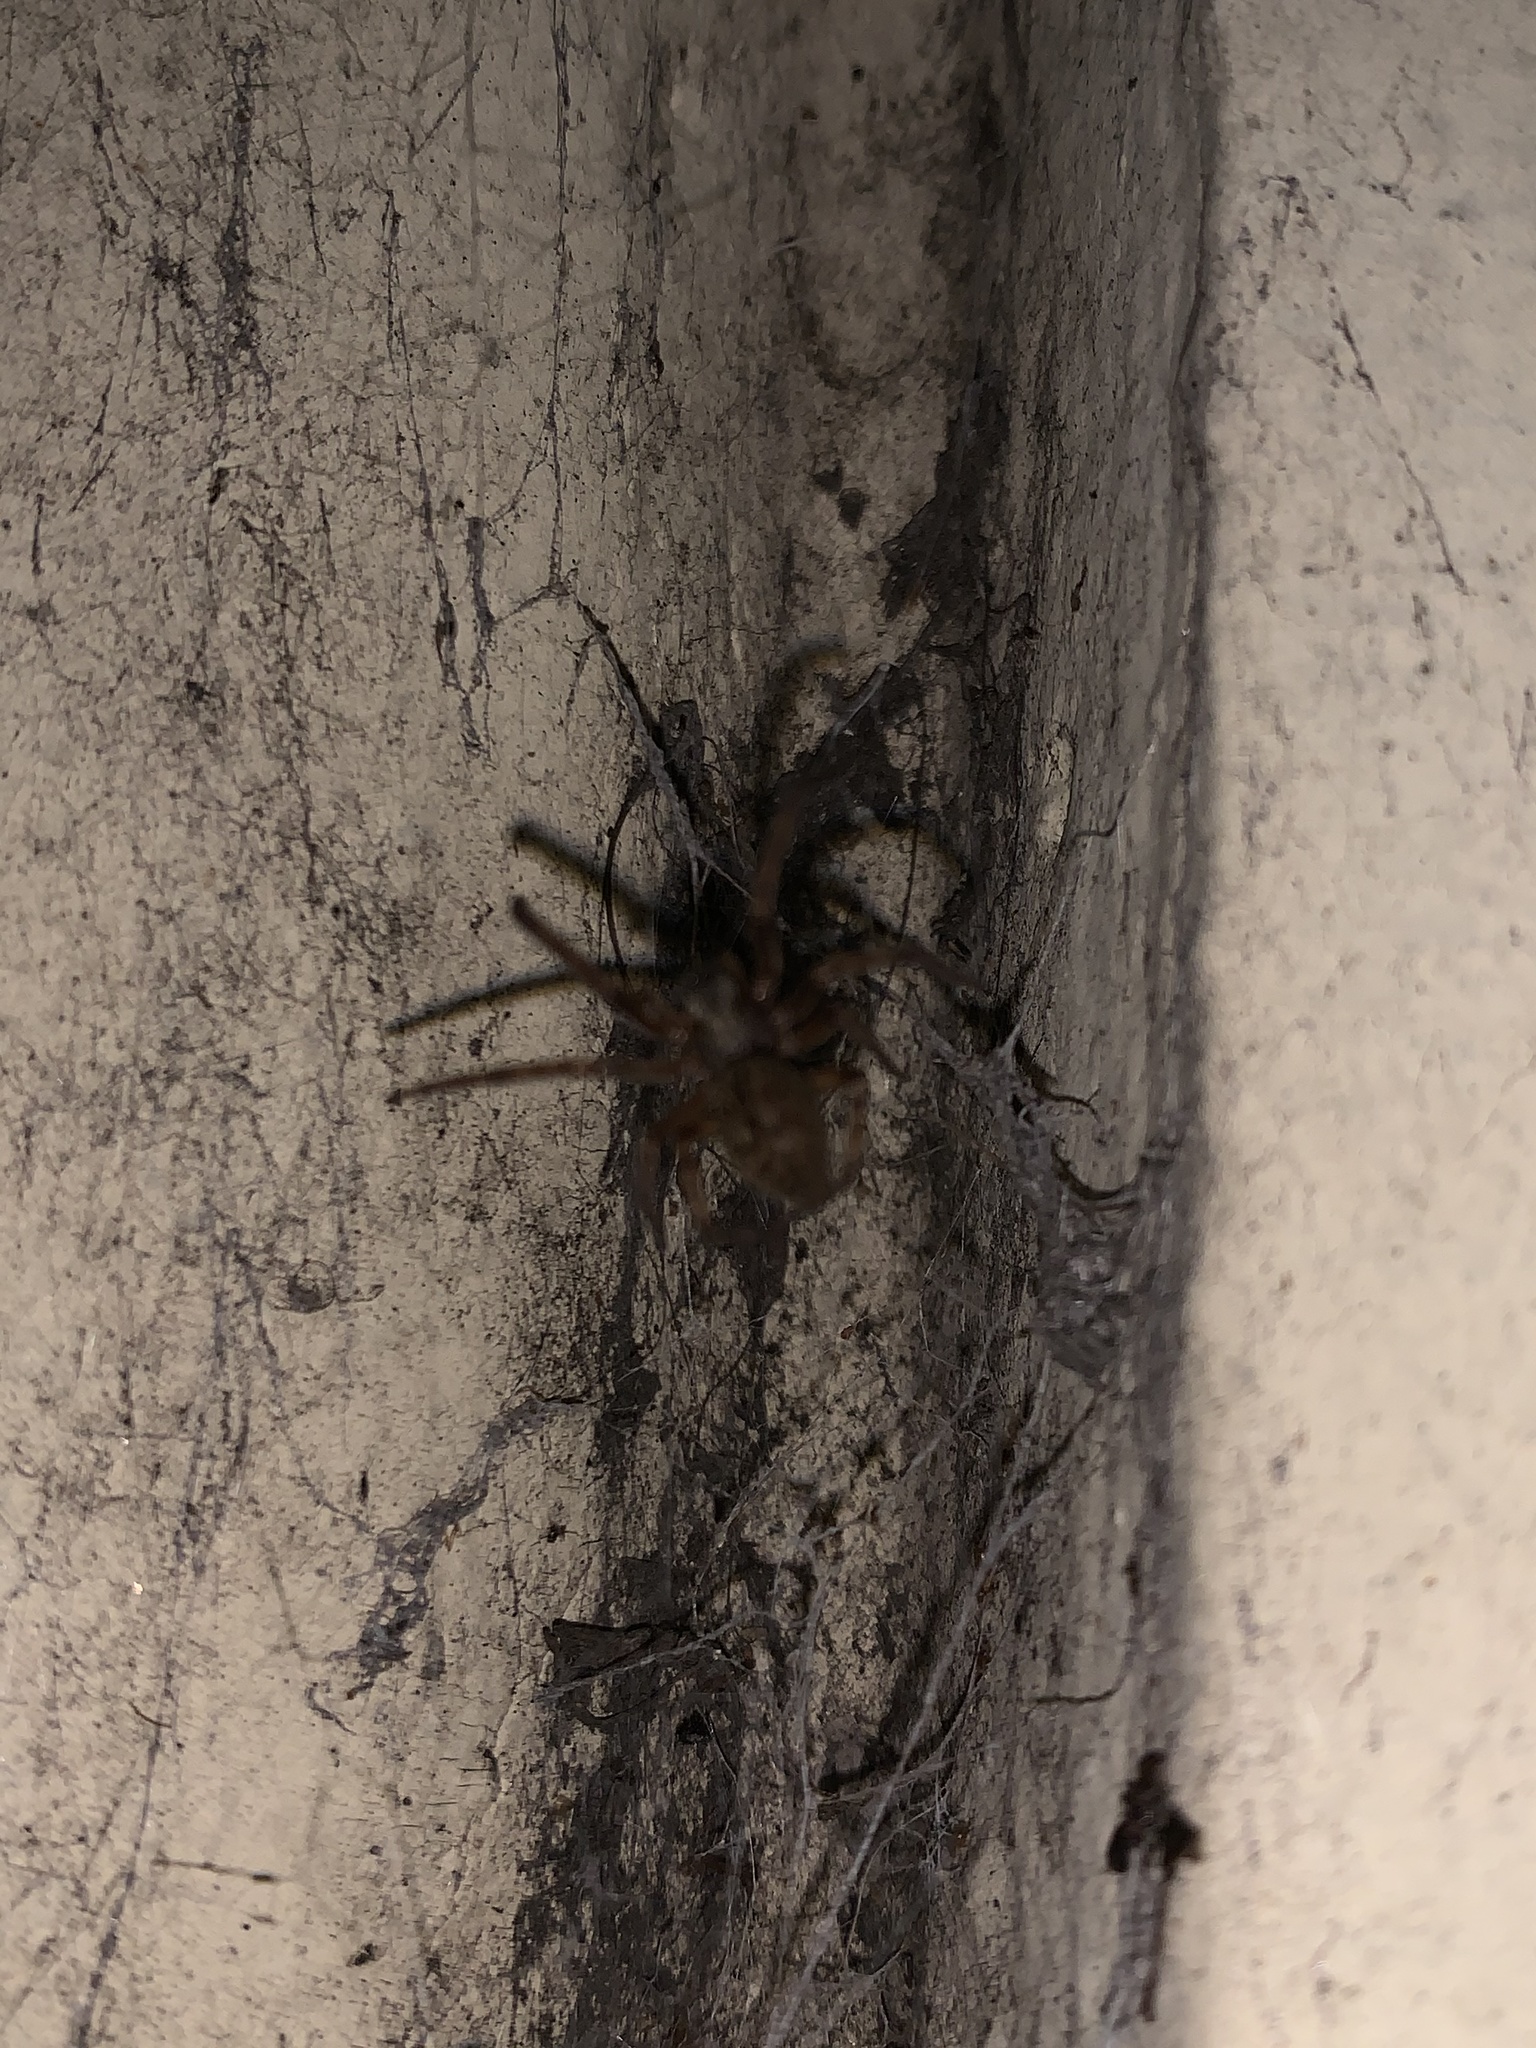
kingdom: Animalia
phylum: Arthropoda
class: Arachnida
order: Araneae
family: Desidae
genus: Badumna
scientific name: Badumna longinqua
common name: Gray house spider
